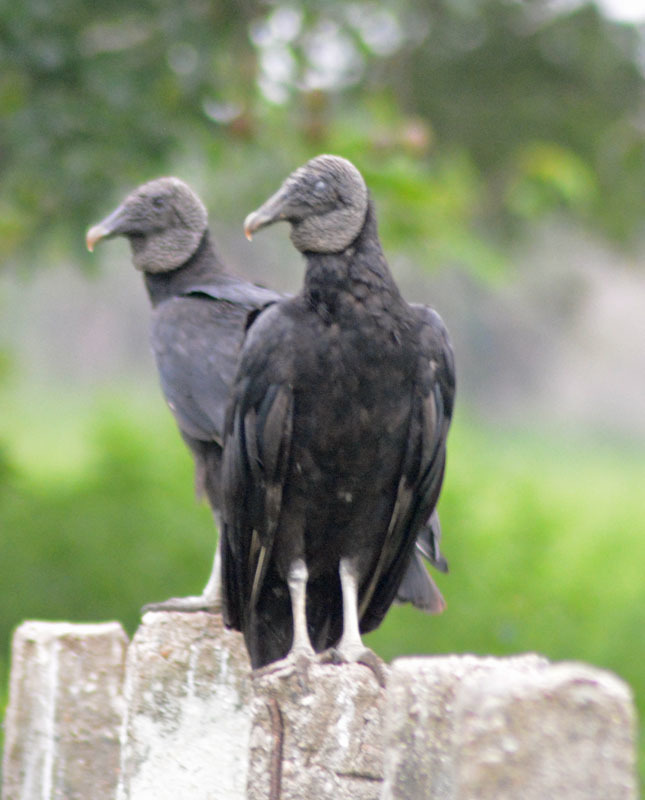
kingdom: Animalia
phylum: Chordata
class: Aves
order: Accipitriformes
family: Cathartidae
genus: Coragyps
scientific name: Coragyps atratus
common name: Black vulture
